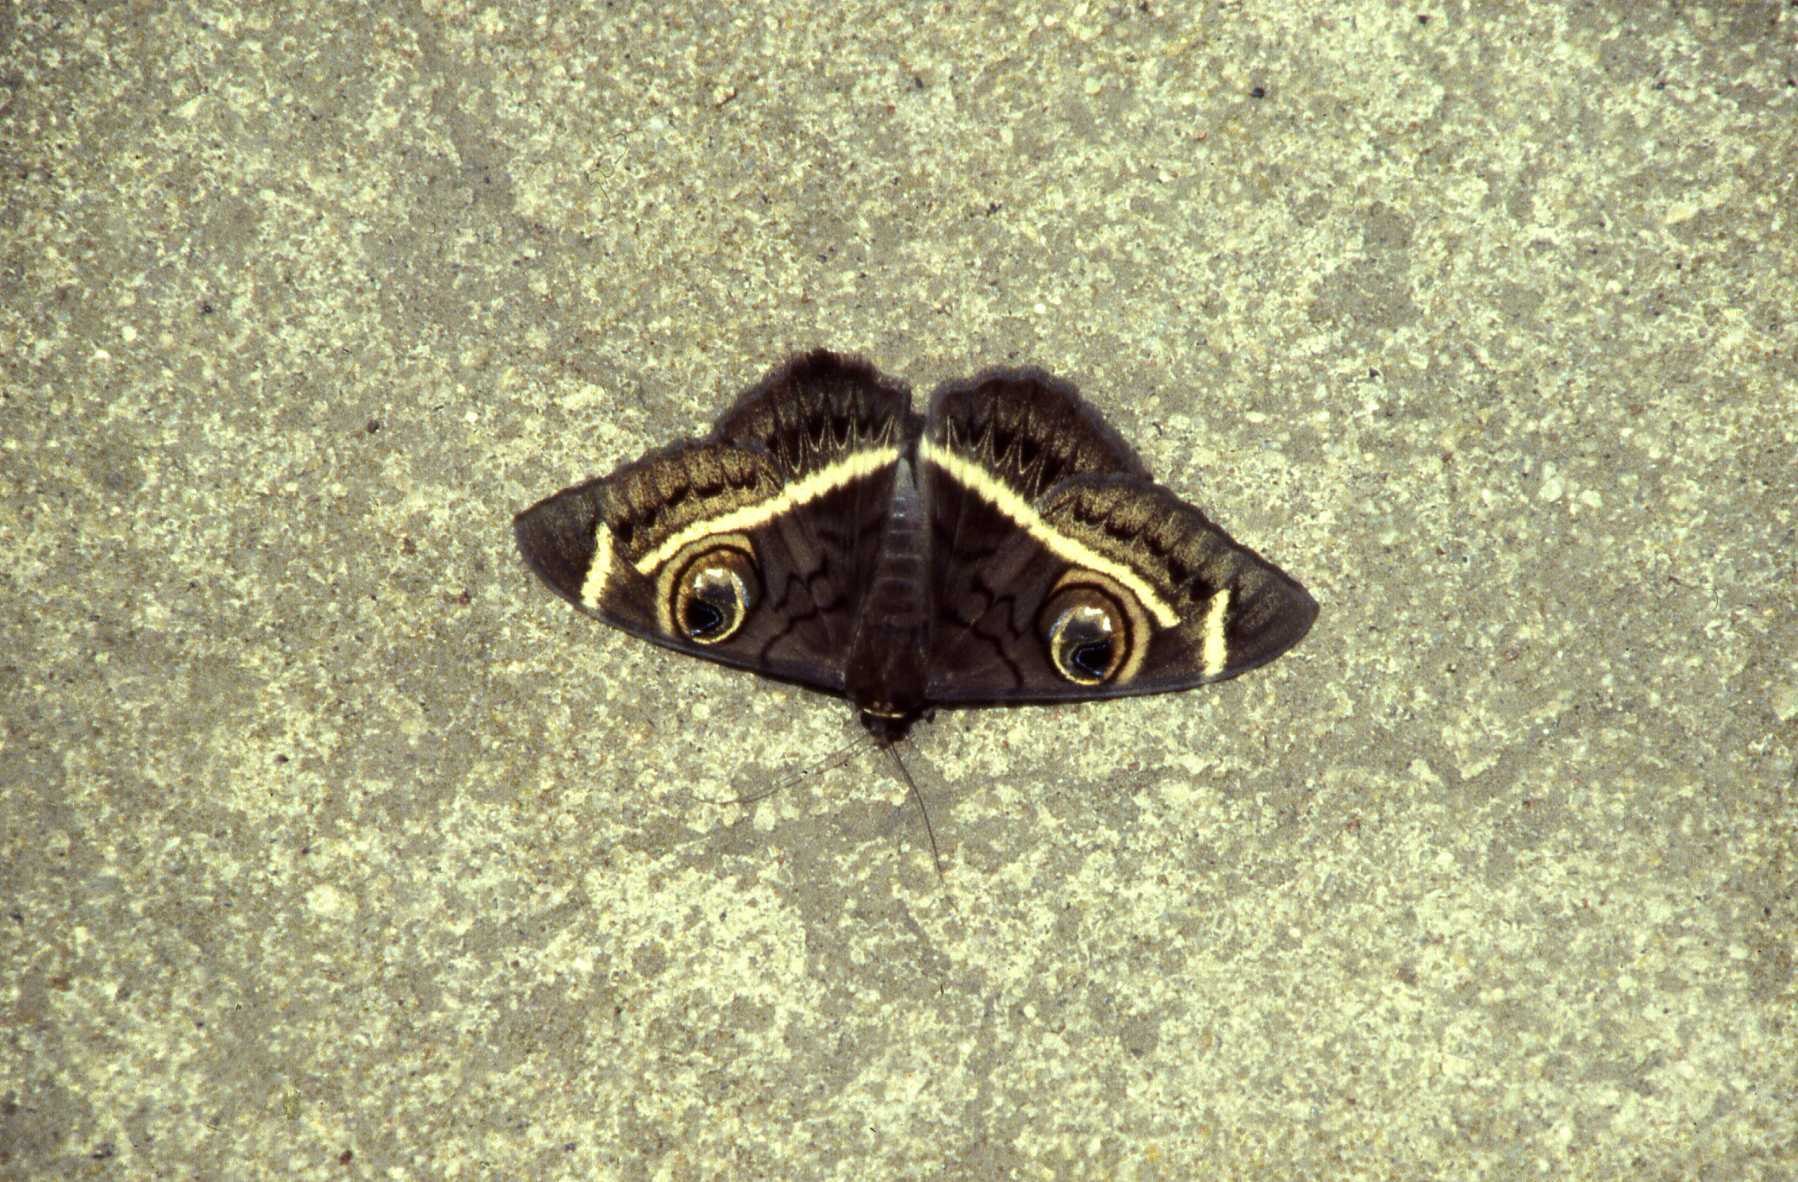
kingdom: Animalia
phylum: Arthropoda
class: Insecta
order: Lepidoptera
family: Erebidae
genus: Cyligramma
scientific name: Cyligramma latona
